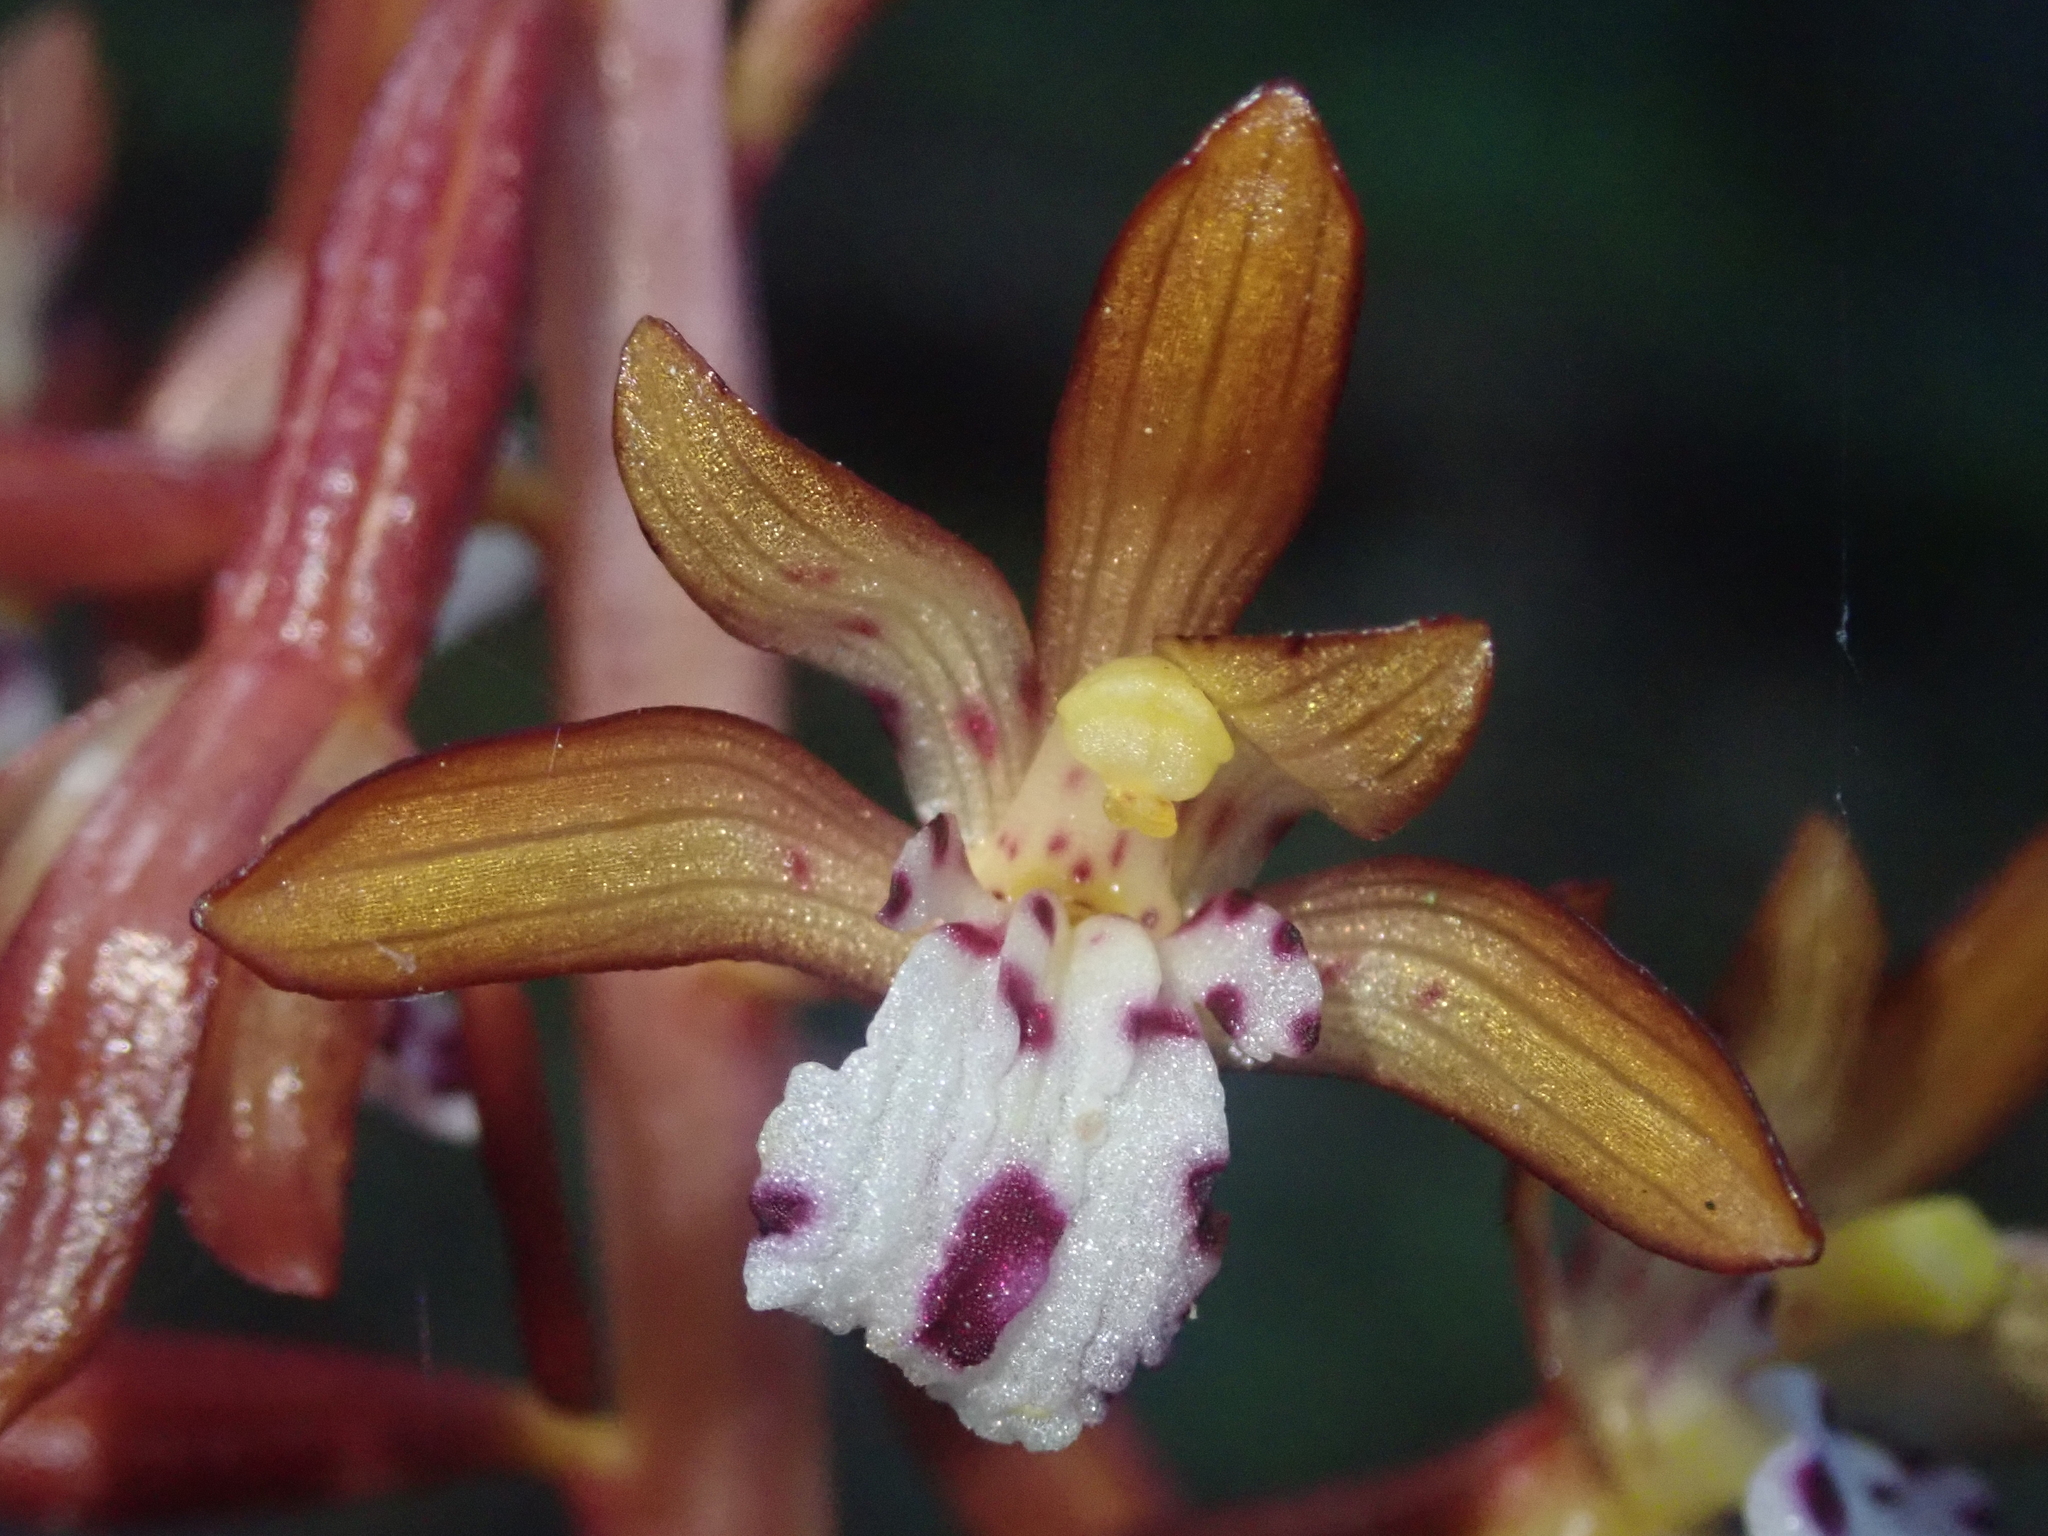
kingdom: Plantae
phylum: Tracheophyta
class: Liliopsida
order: Asparagales
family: Orchidaceae
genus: Corallorhiza
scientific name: Corallorhiza maculata
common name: Spotted coralroot
